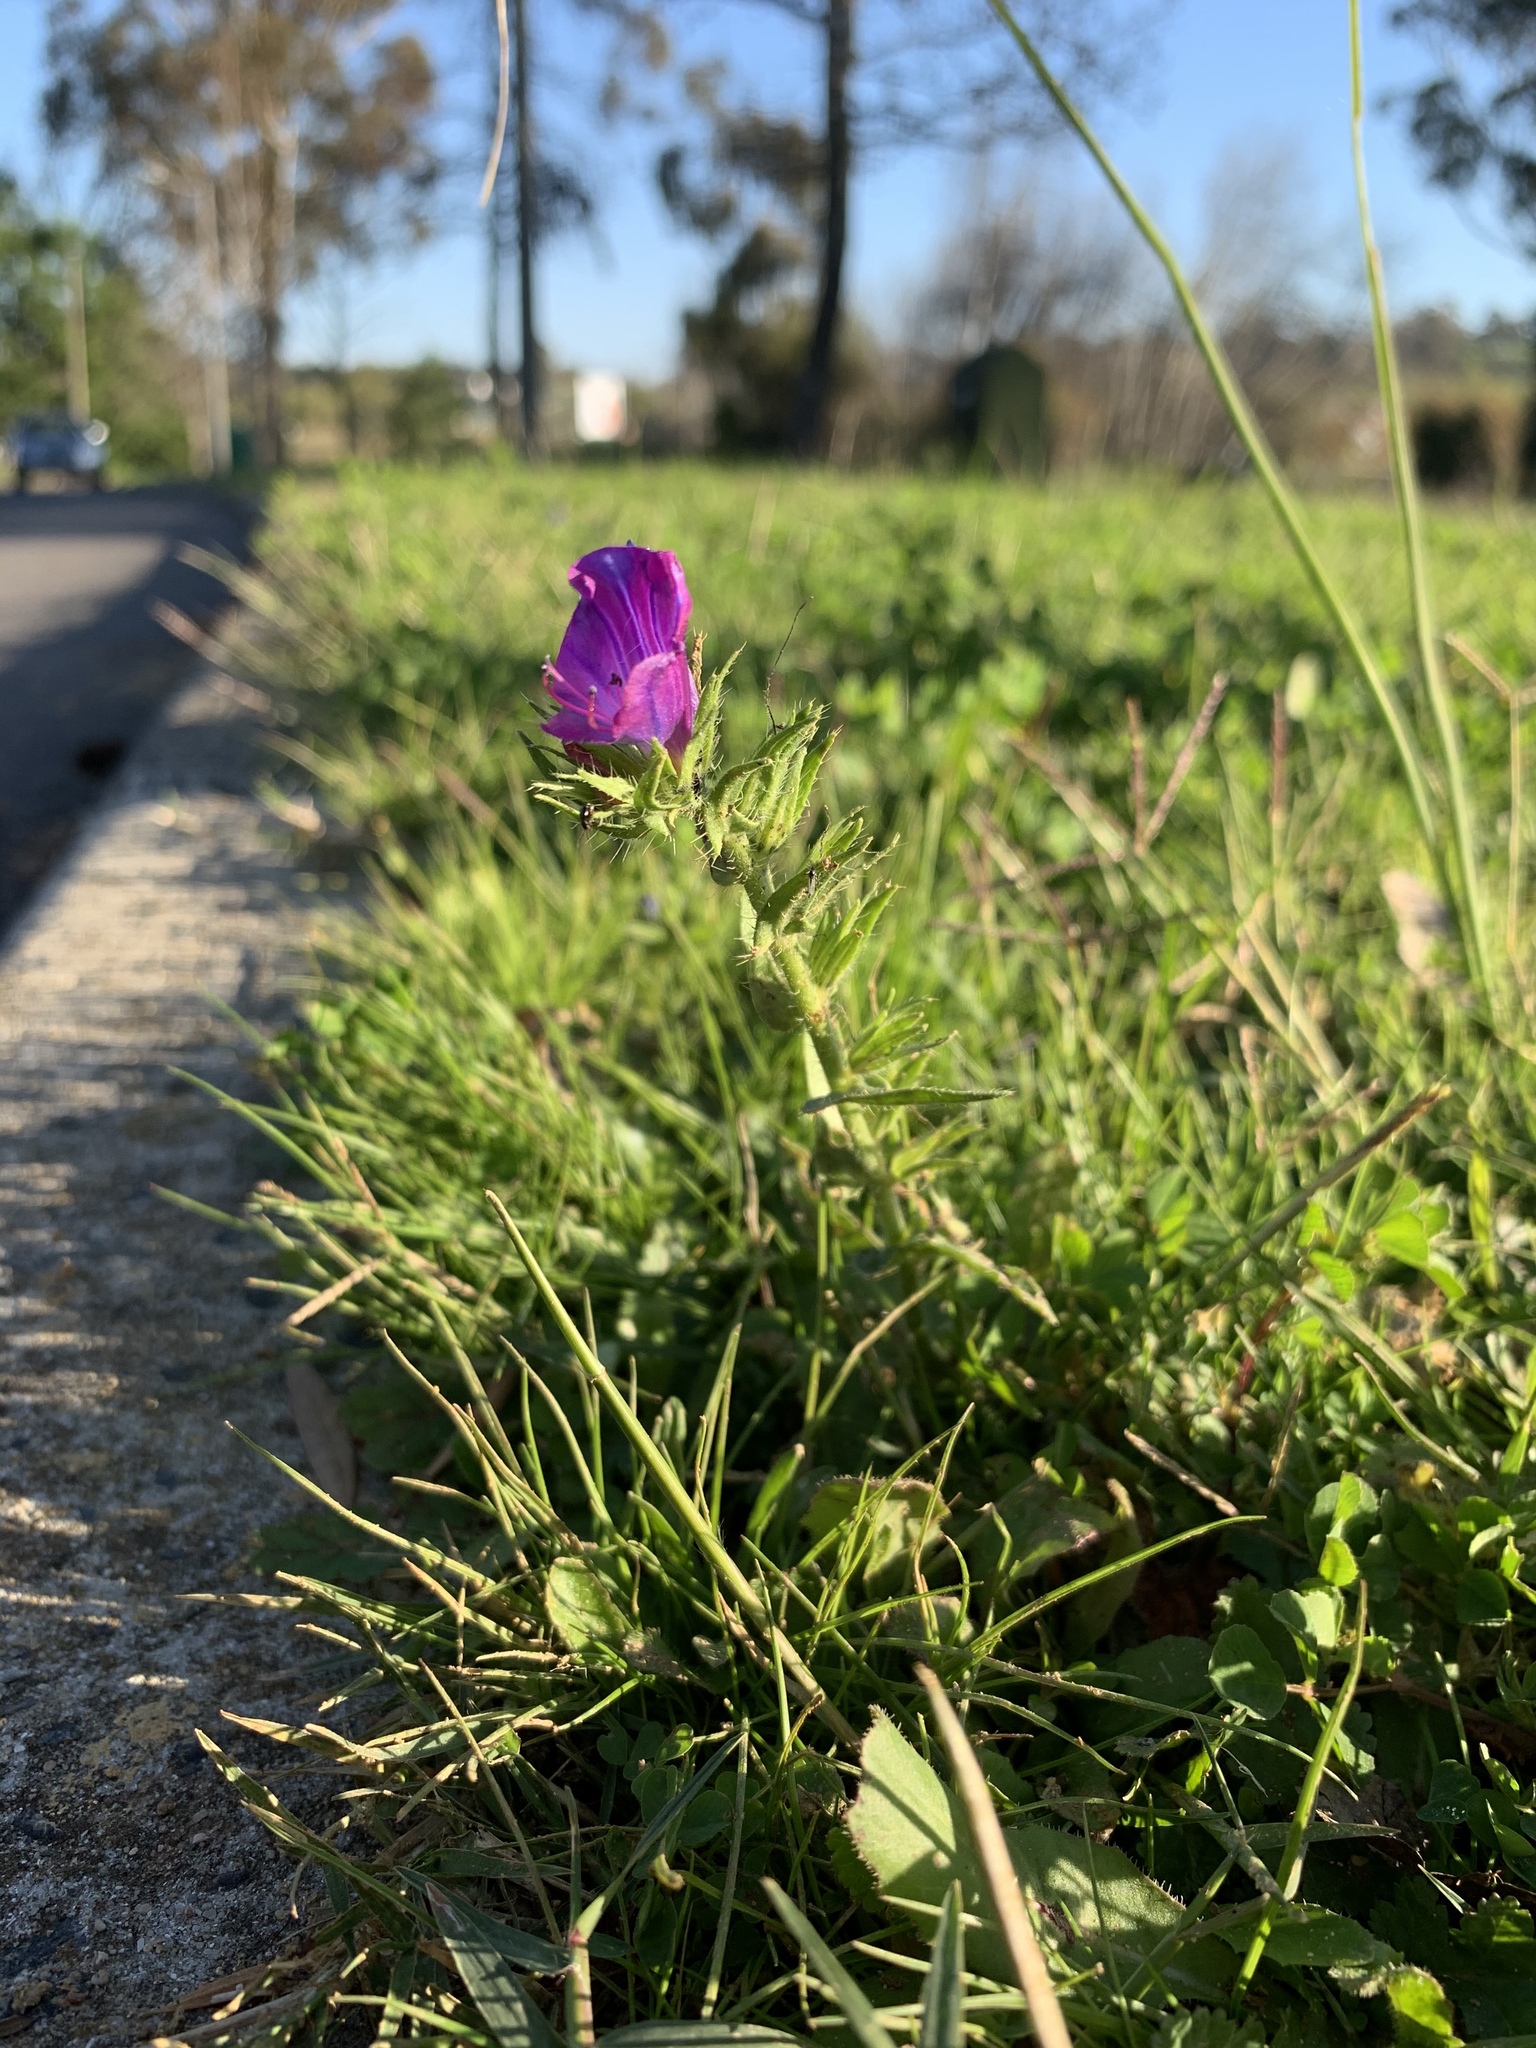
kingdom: Plantae
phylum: Tracheophyta
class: Magnoliopsida
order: Boraginales
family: Boraginaceae
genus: Echium
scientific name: Echium plantagineum
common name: Purple viper's-bugloss
